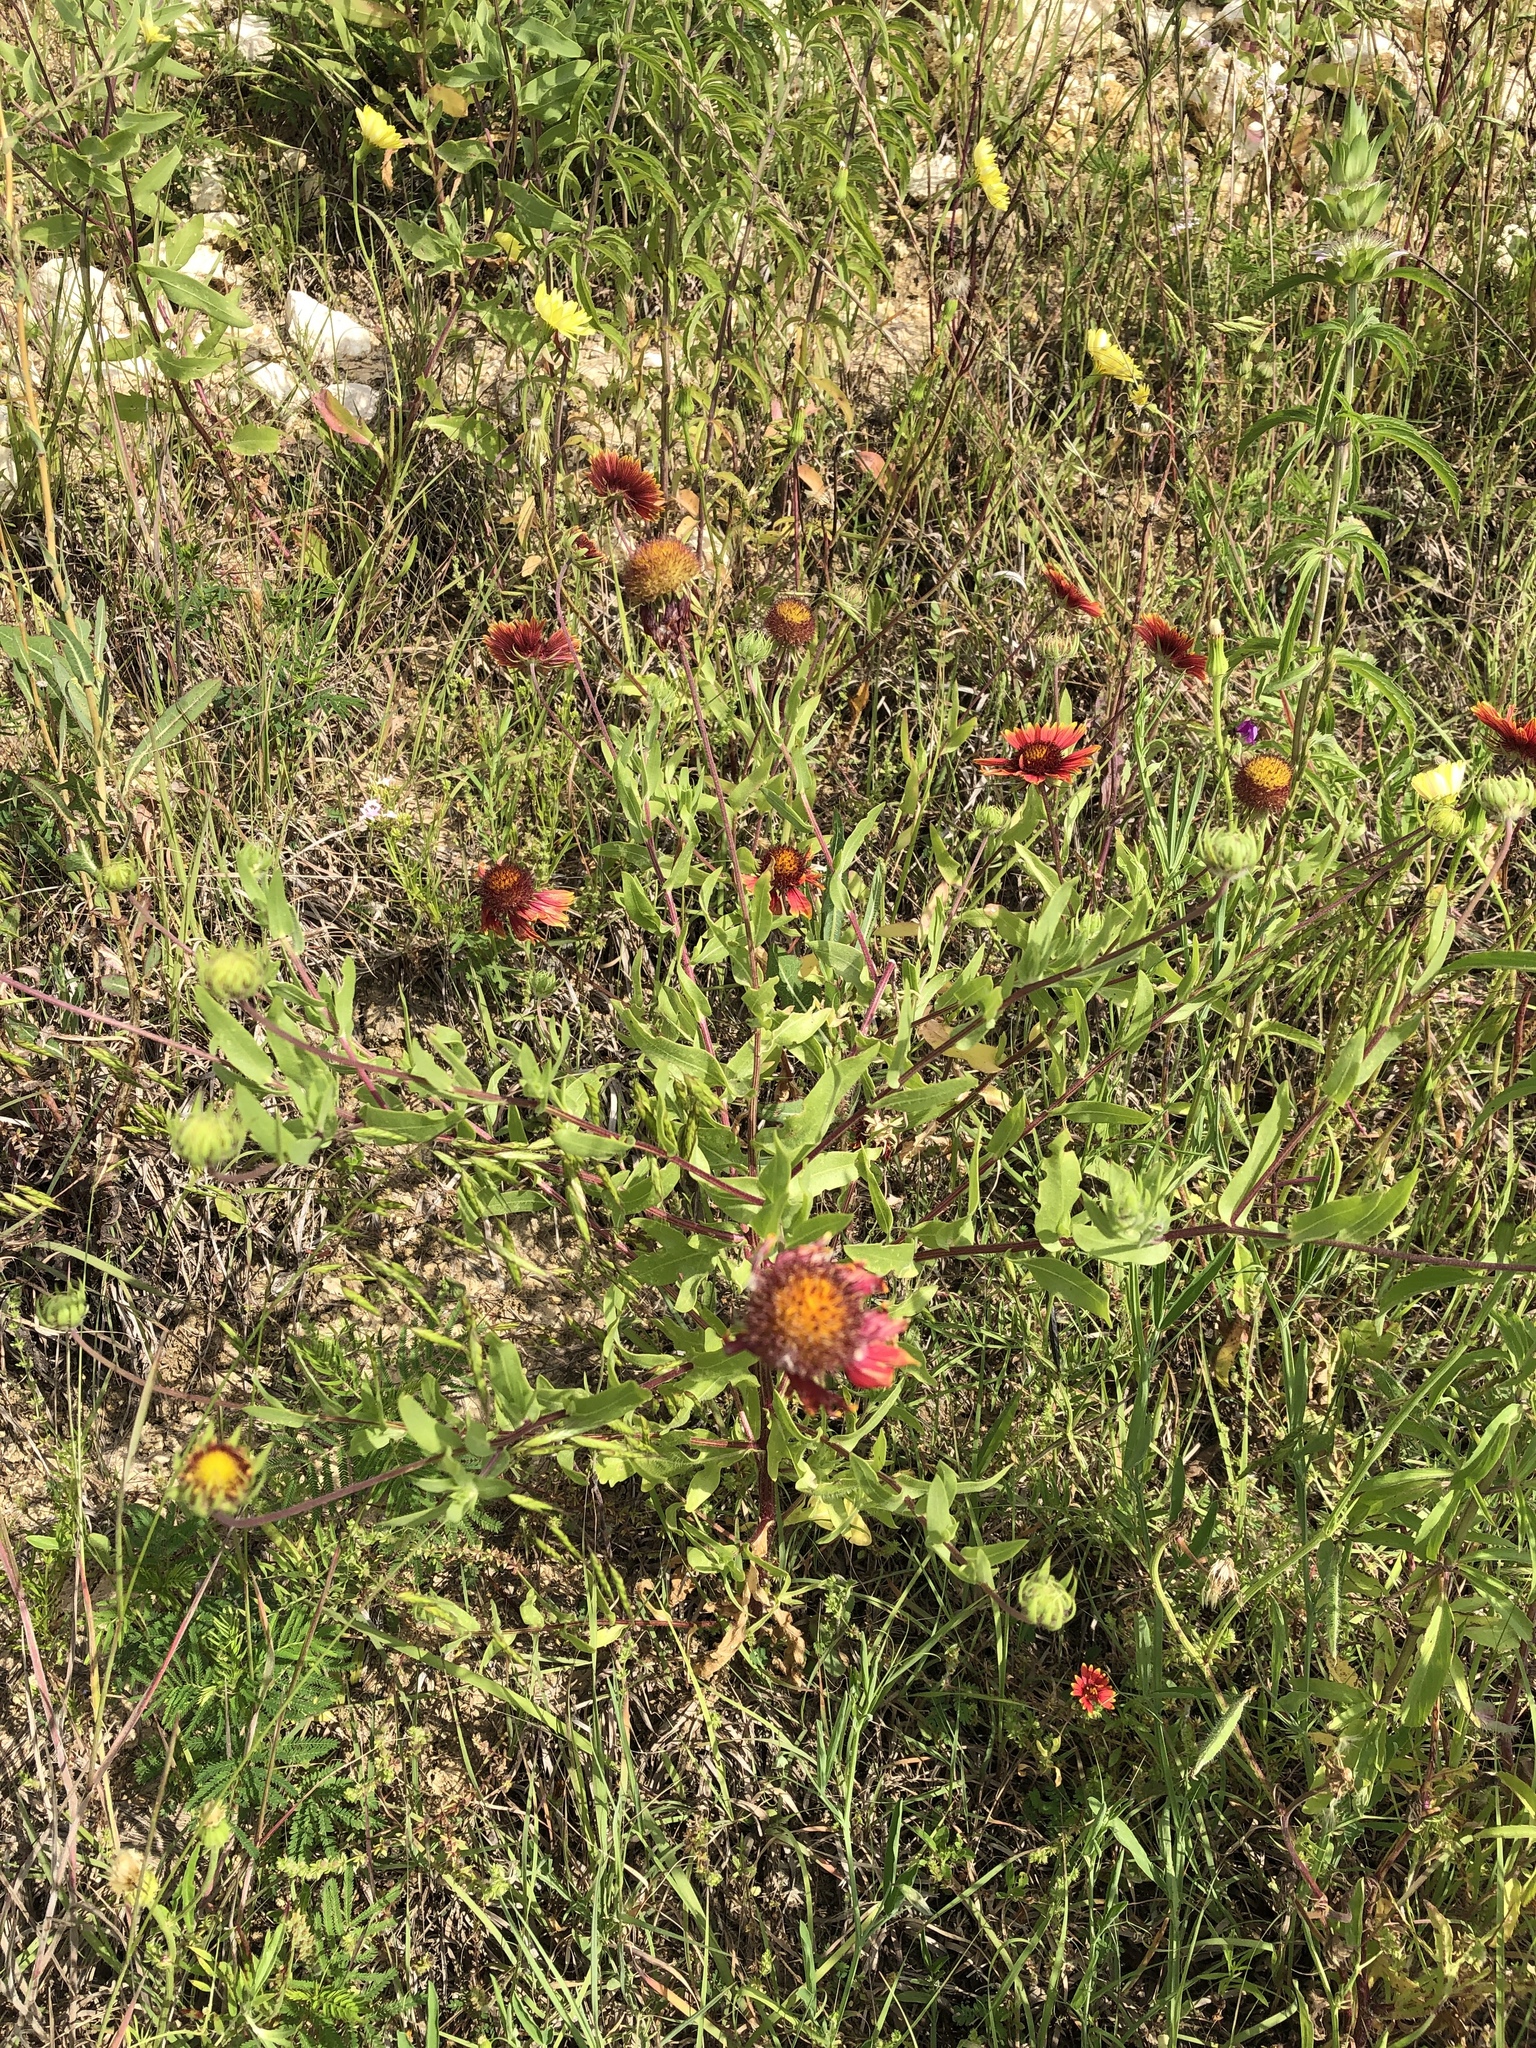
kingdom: Plantae
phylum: Tracheophyta
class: Magnoliopsida
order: Asterales
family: Asteraceae
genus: Gaillardia
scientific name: Gaillardia pulchella
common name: Firewheel
